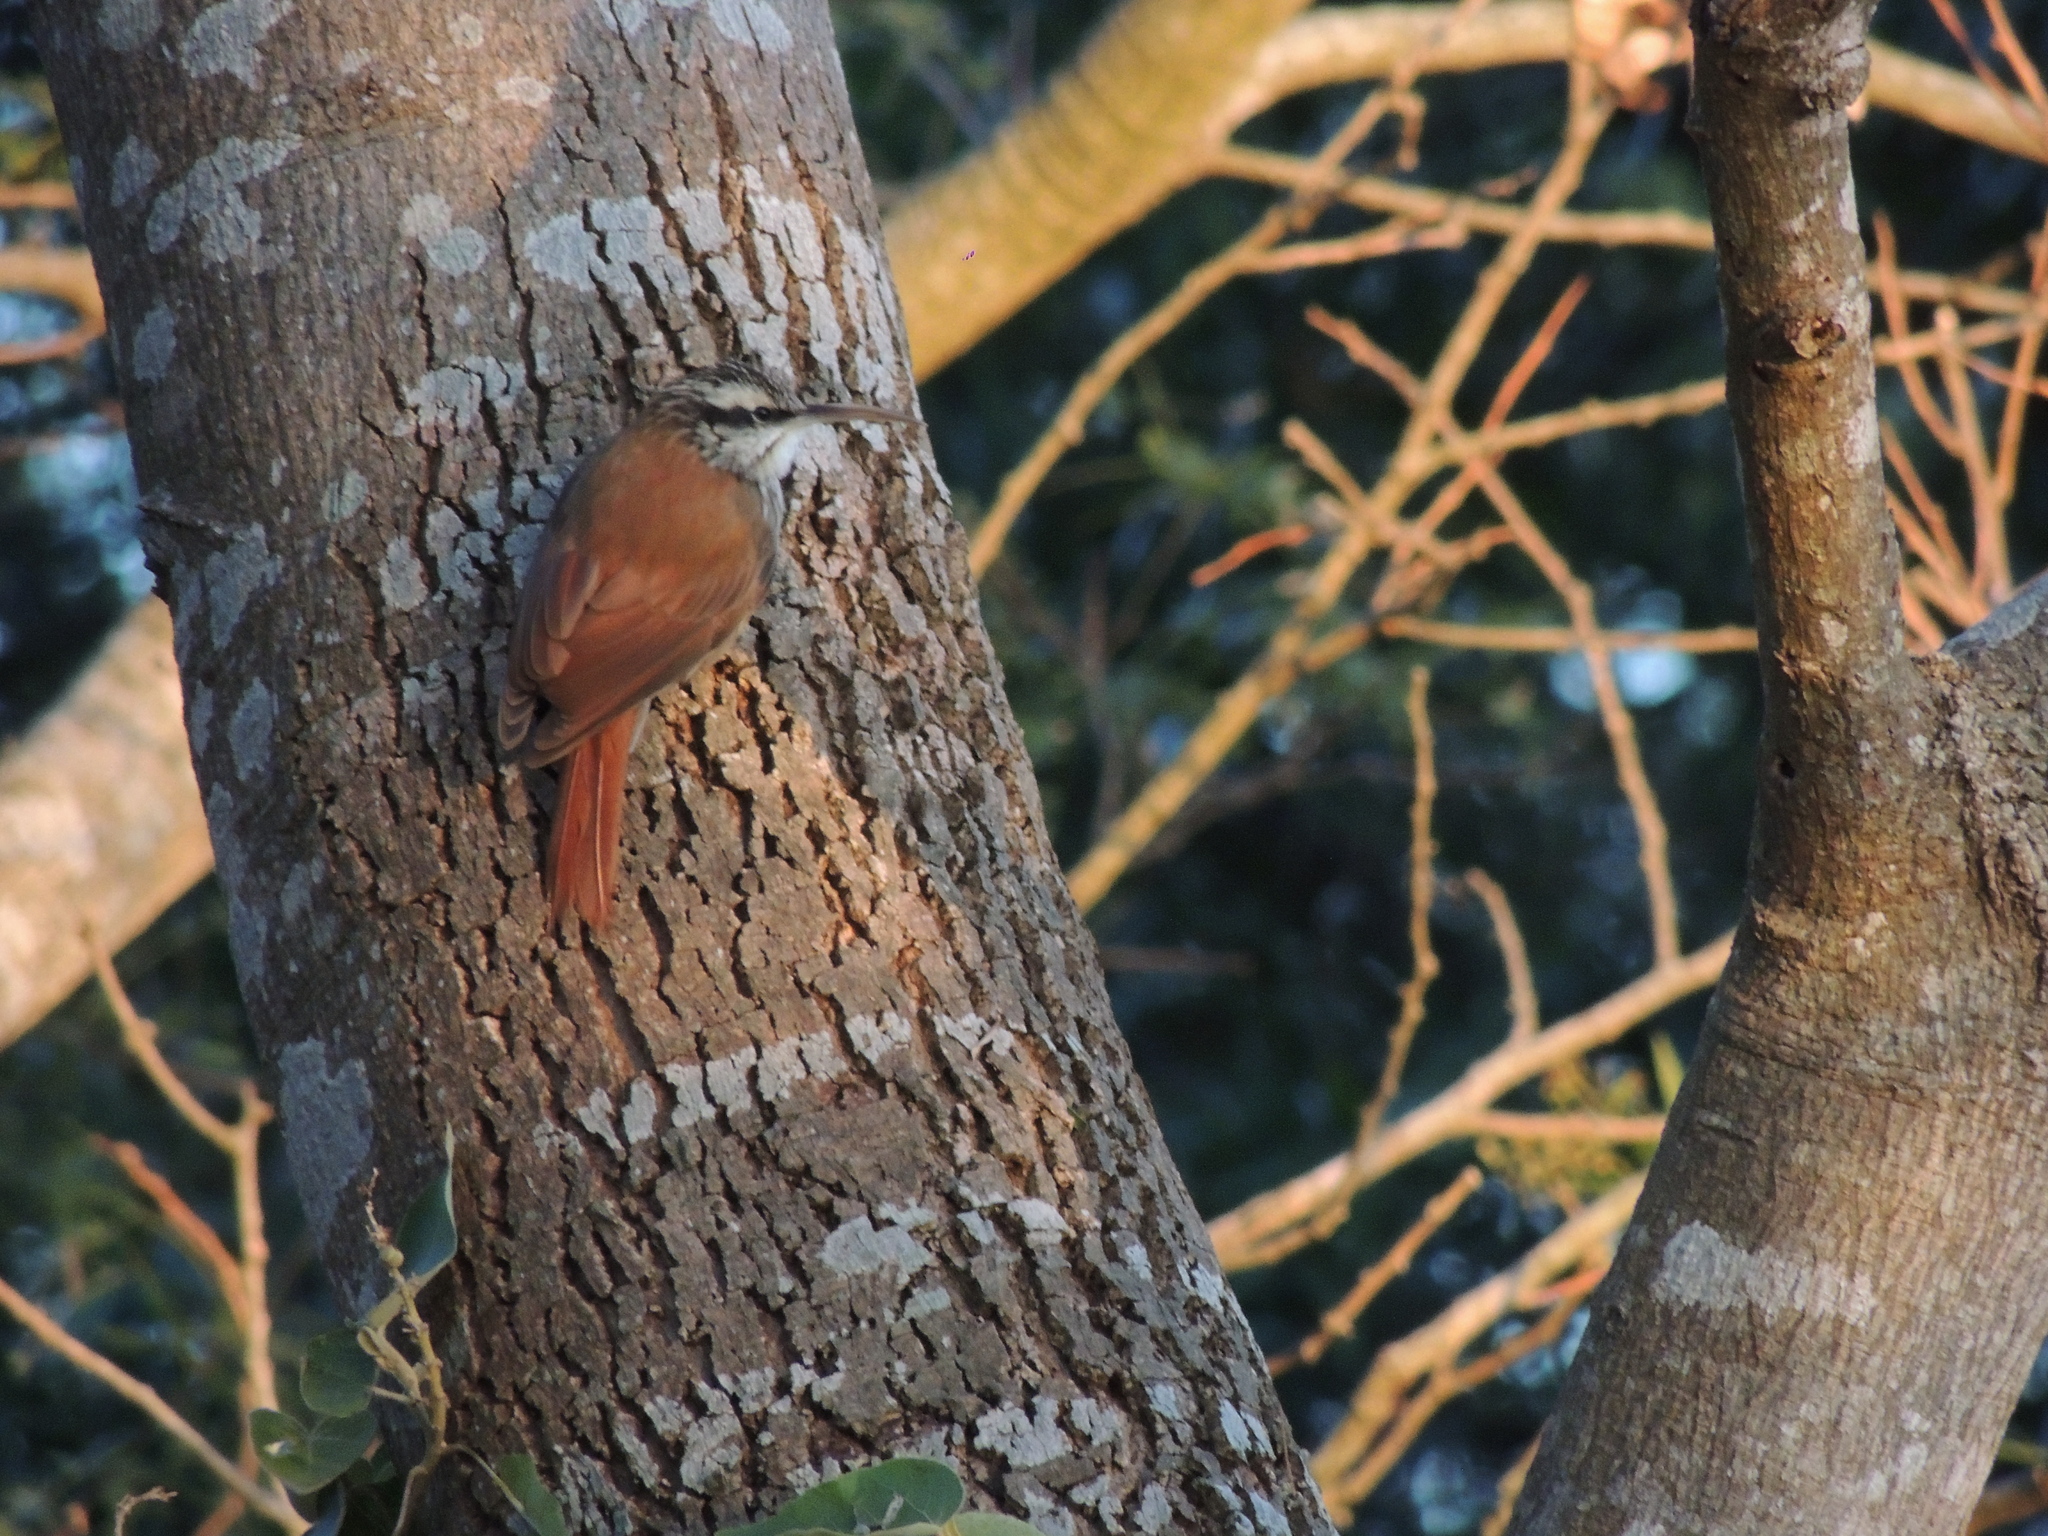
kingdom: Animalia
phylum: Chordata
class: Aves
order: Passeriformes
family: Furnariidae
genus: Lepidocolaptes
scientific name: Lepidocolaptes angustirostris
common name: Narrow-billed woodcreeper
